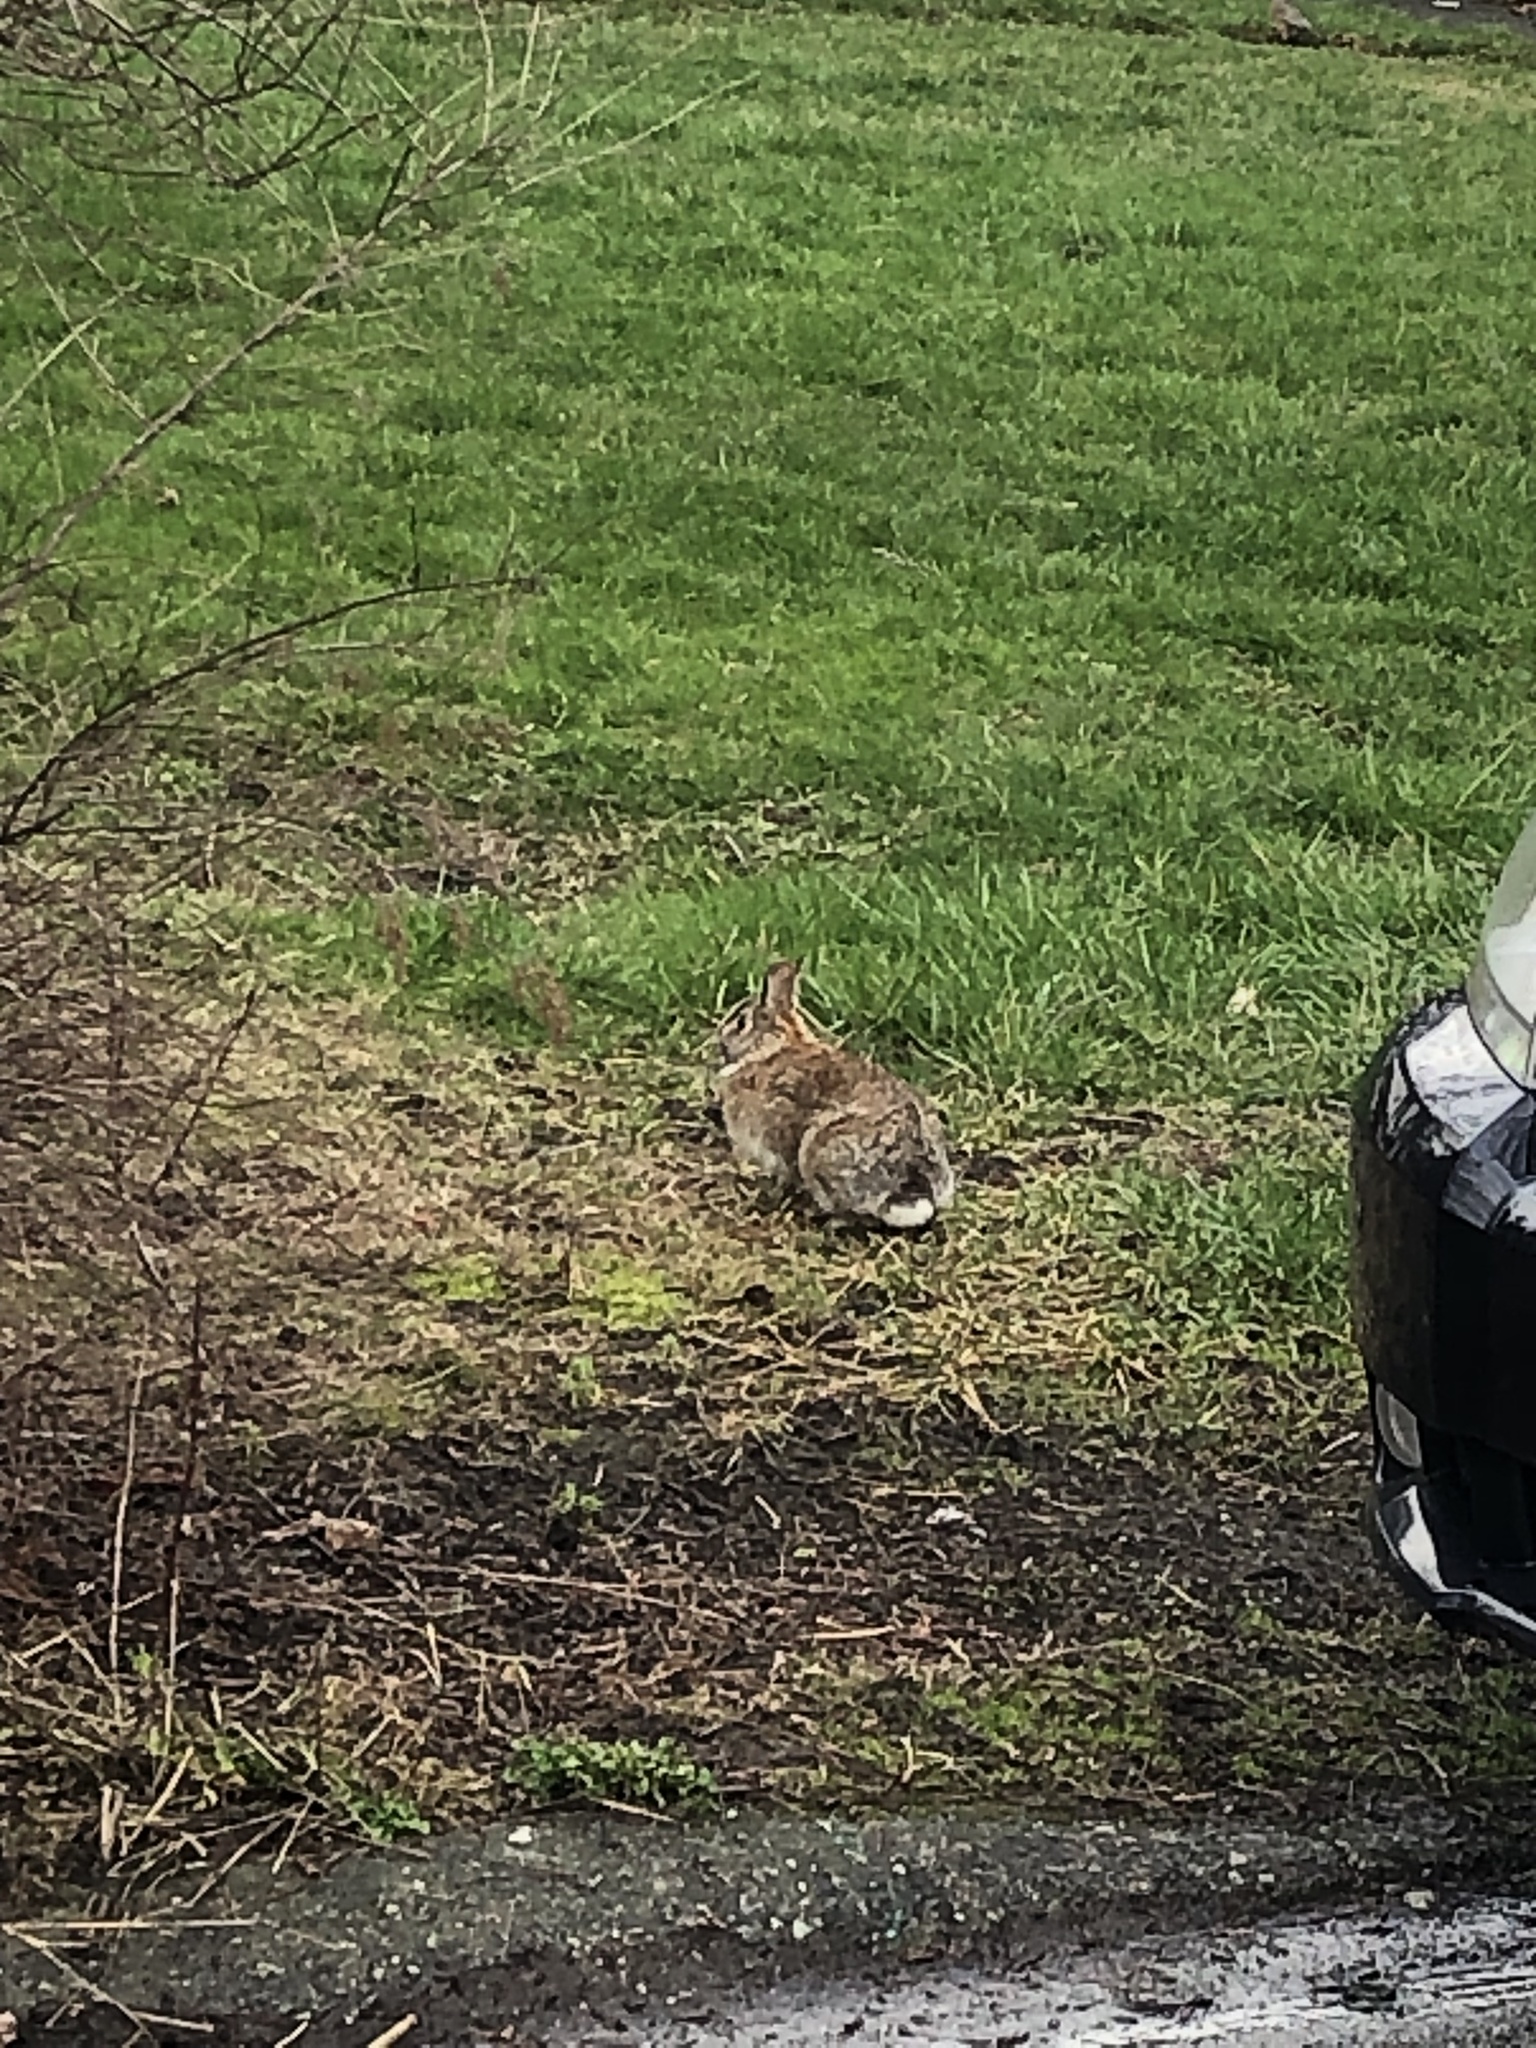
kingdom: Animalia
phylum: Chordata
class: Mammalia
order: Lagomorpha
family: Leporidae
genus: Sylvilagus
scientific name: Sylvilagus floridanus
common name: Eastern cottontail
